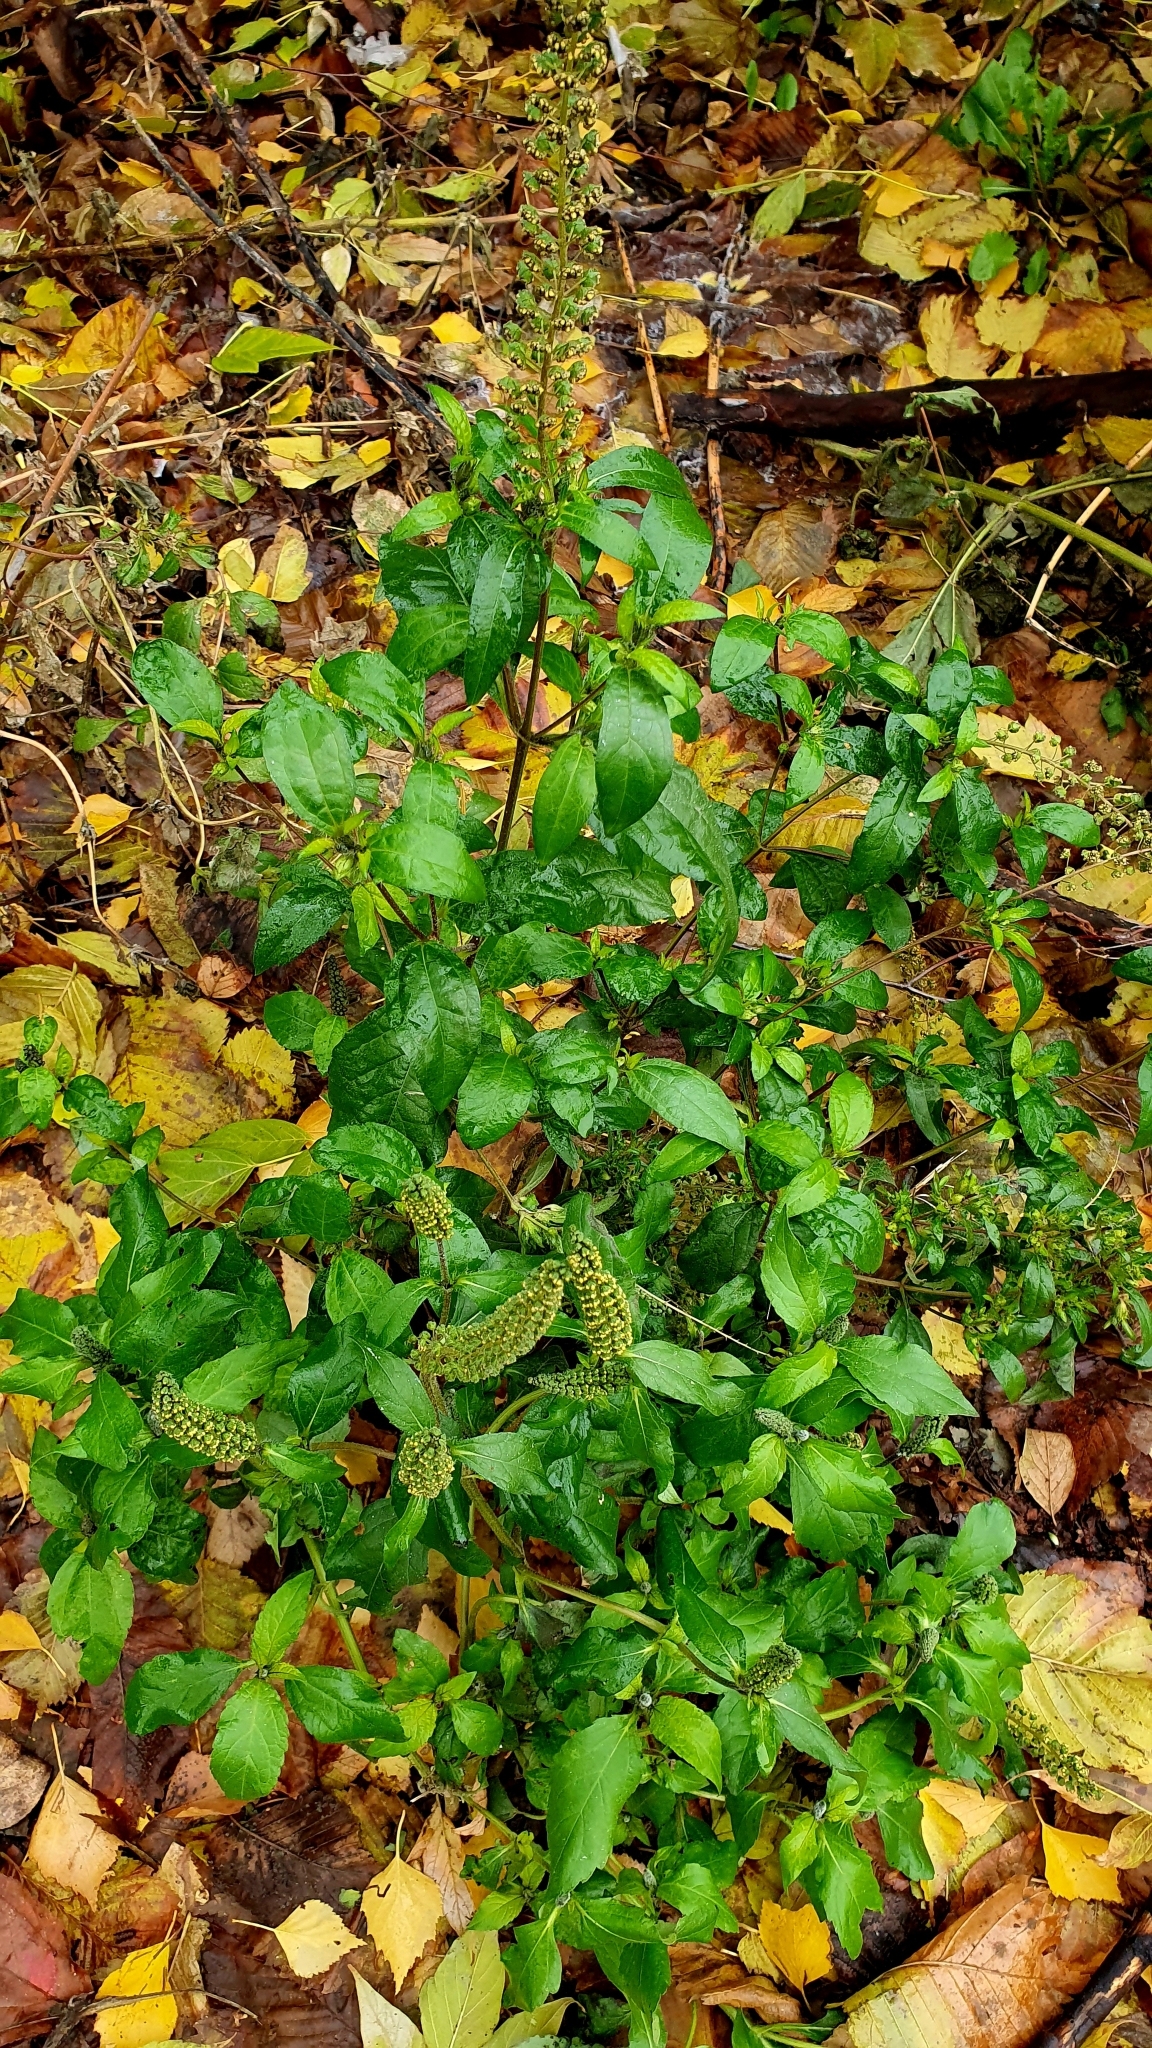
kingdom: Plantae
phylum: Tracheophyta
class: Magnoliopsida
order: Asterales
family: Asteraceae
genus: Ambrosia
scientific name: Ambrosia trifida
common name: Giant ragweed
